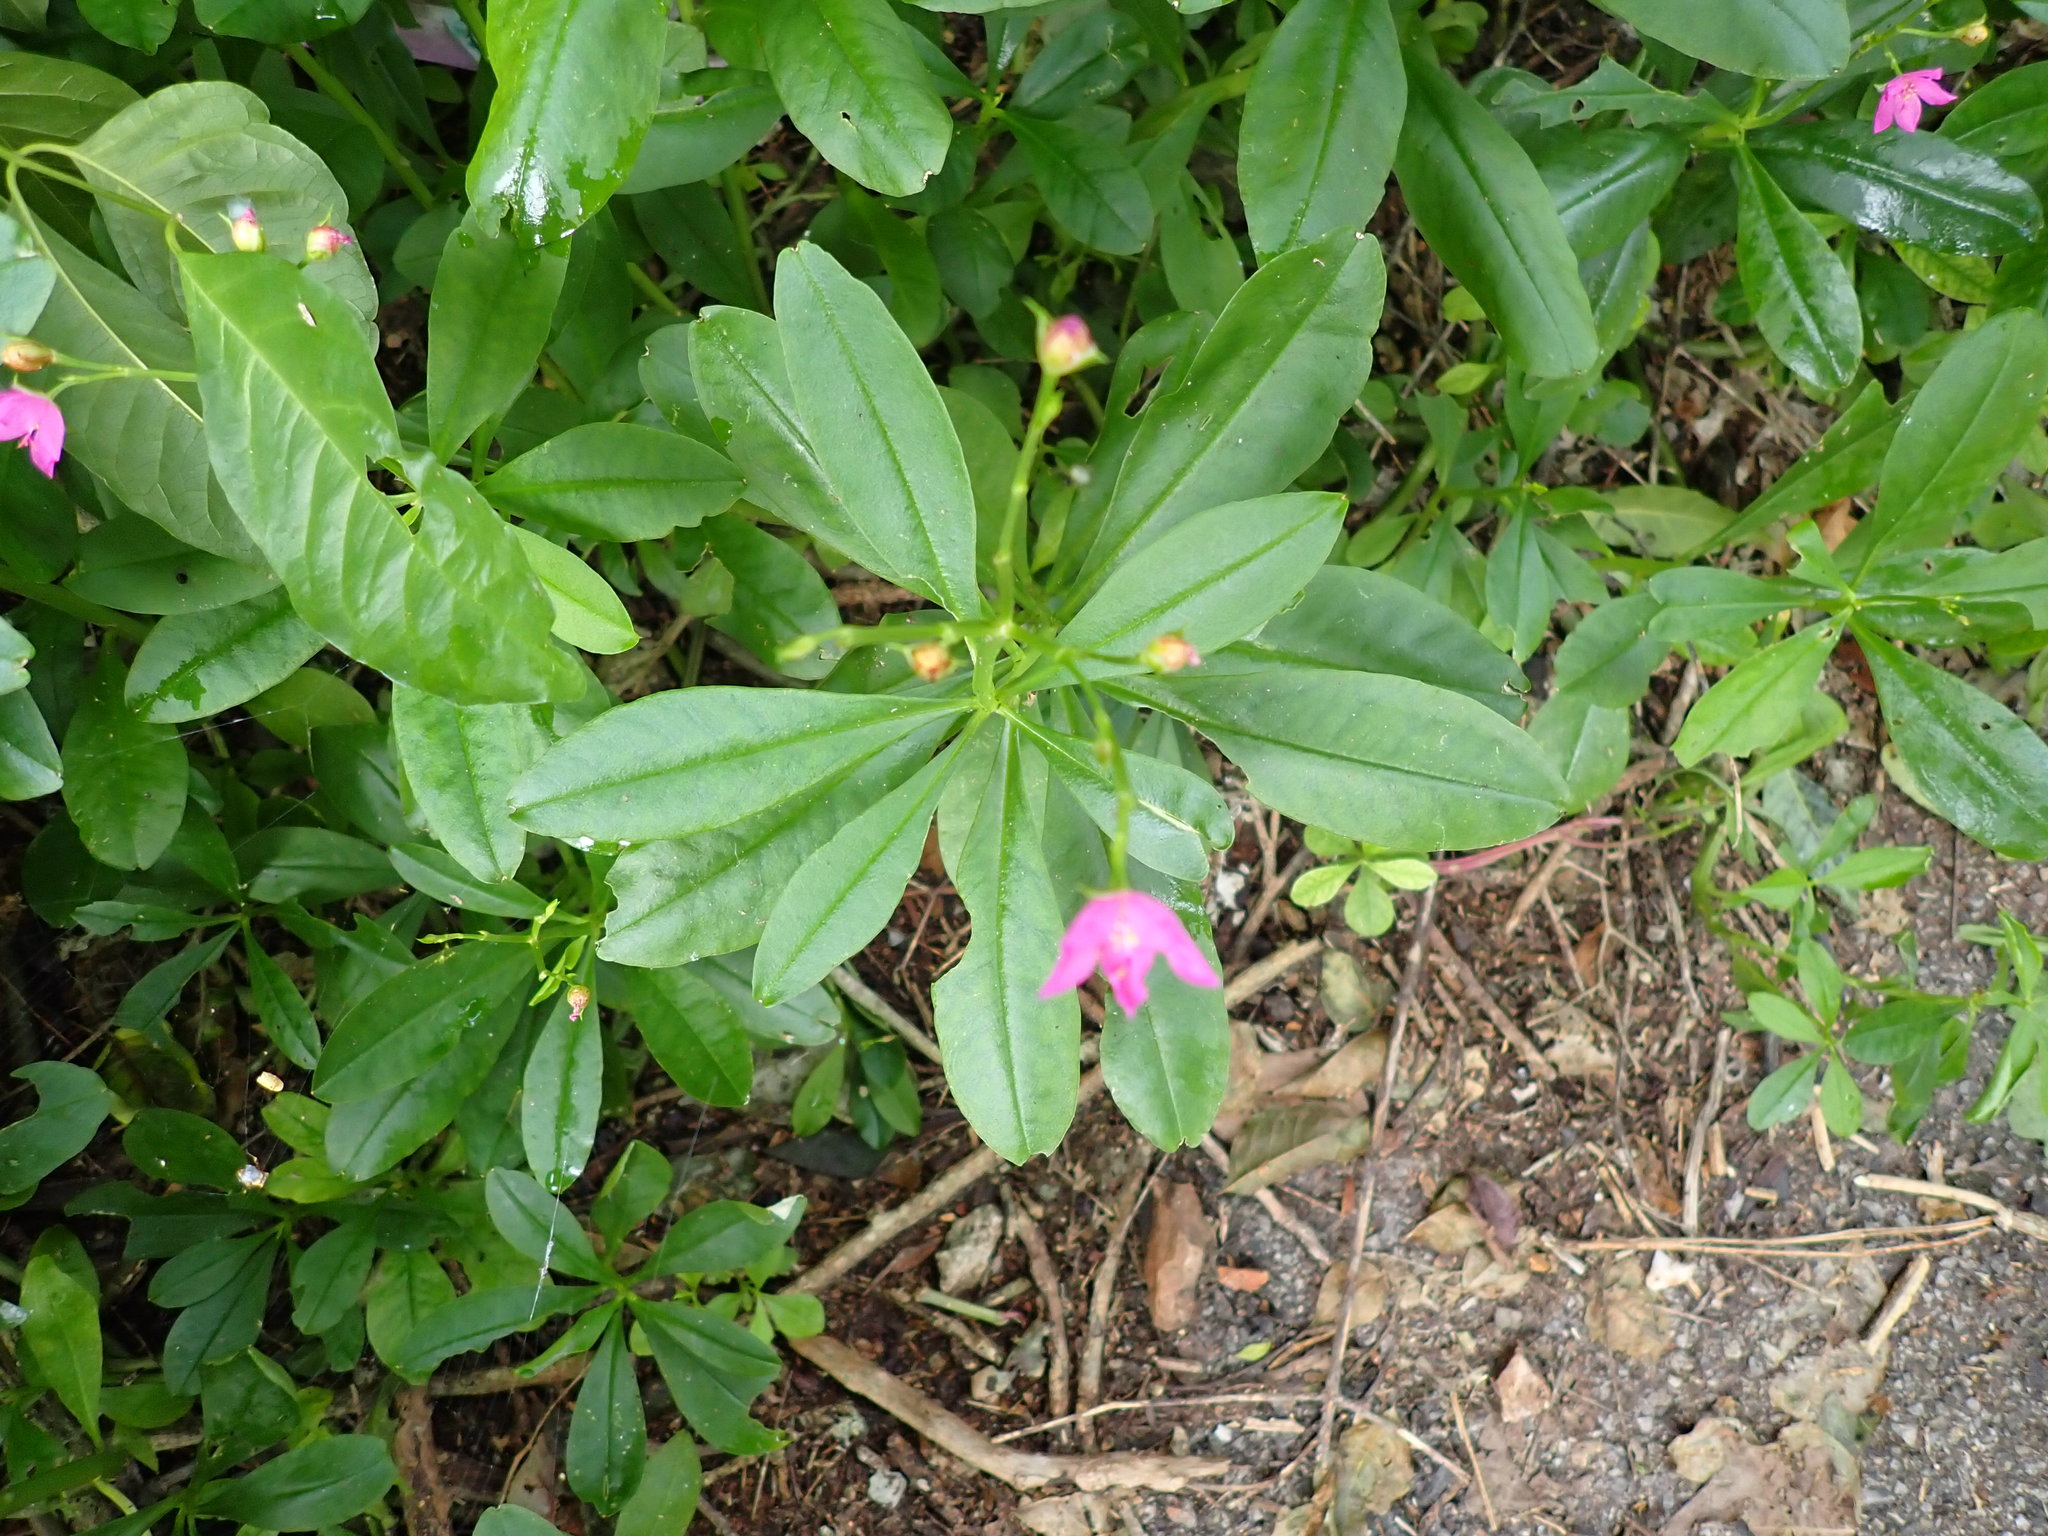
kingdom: Plantae
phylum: Tracheophyta
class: Magnoliopsida
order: Caryophyllales
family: Talinaceae
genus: Talinum
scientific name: Talinum fruticosum
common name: Verdolaga-francesa
